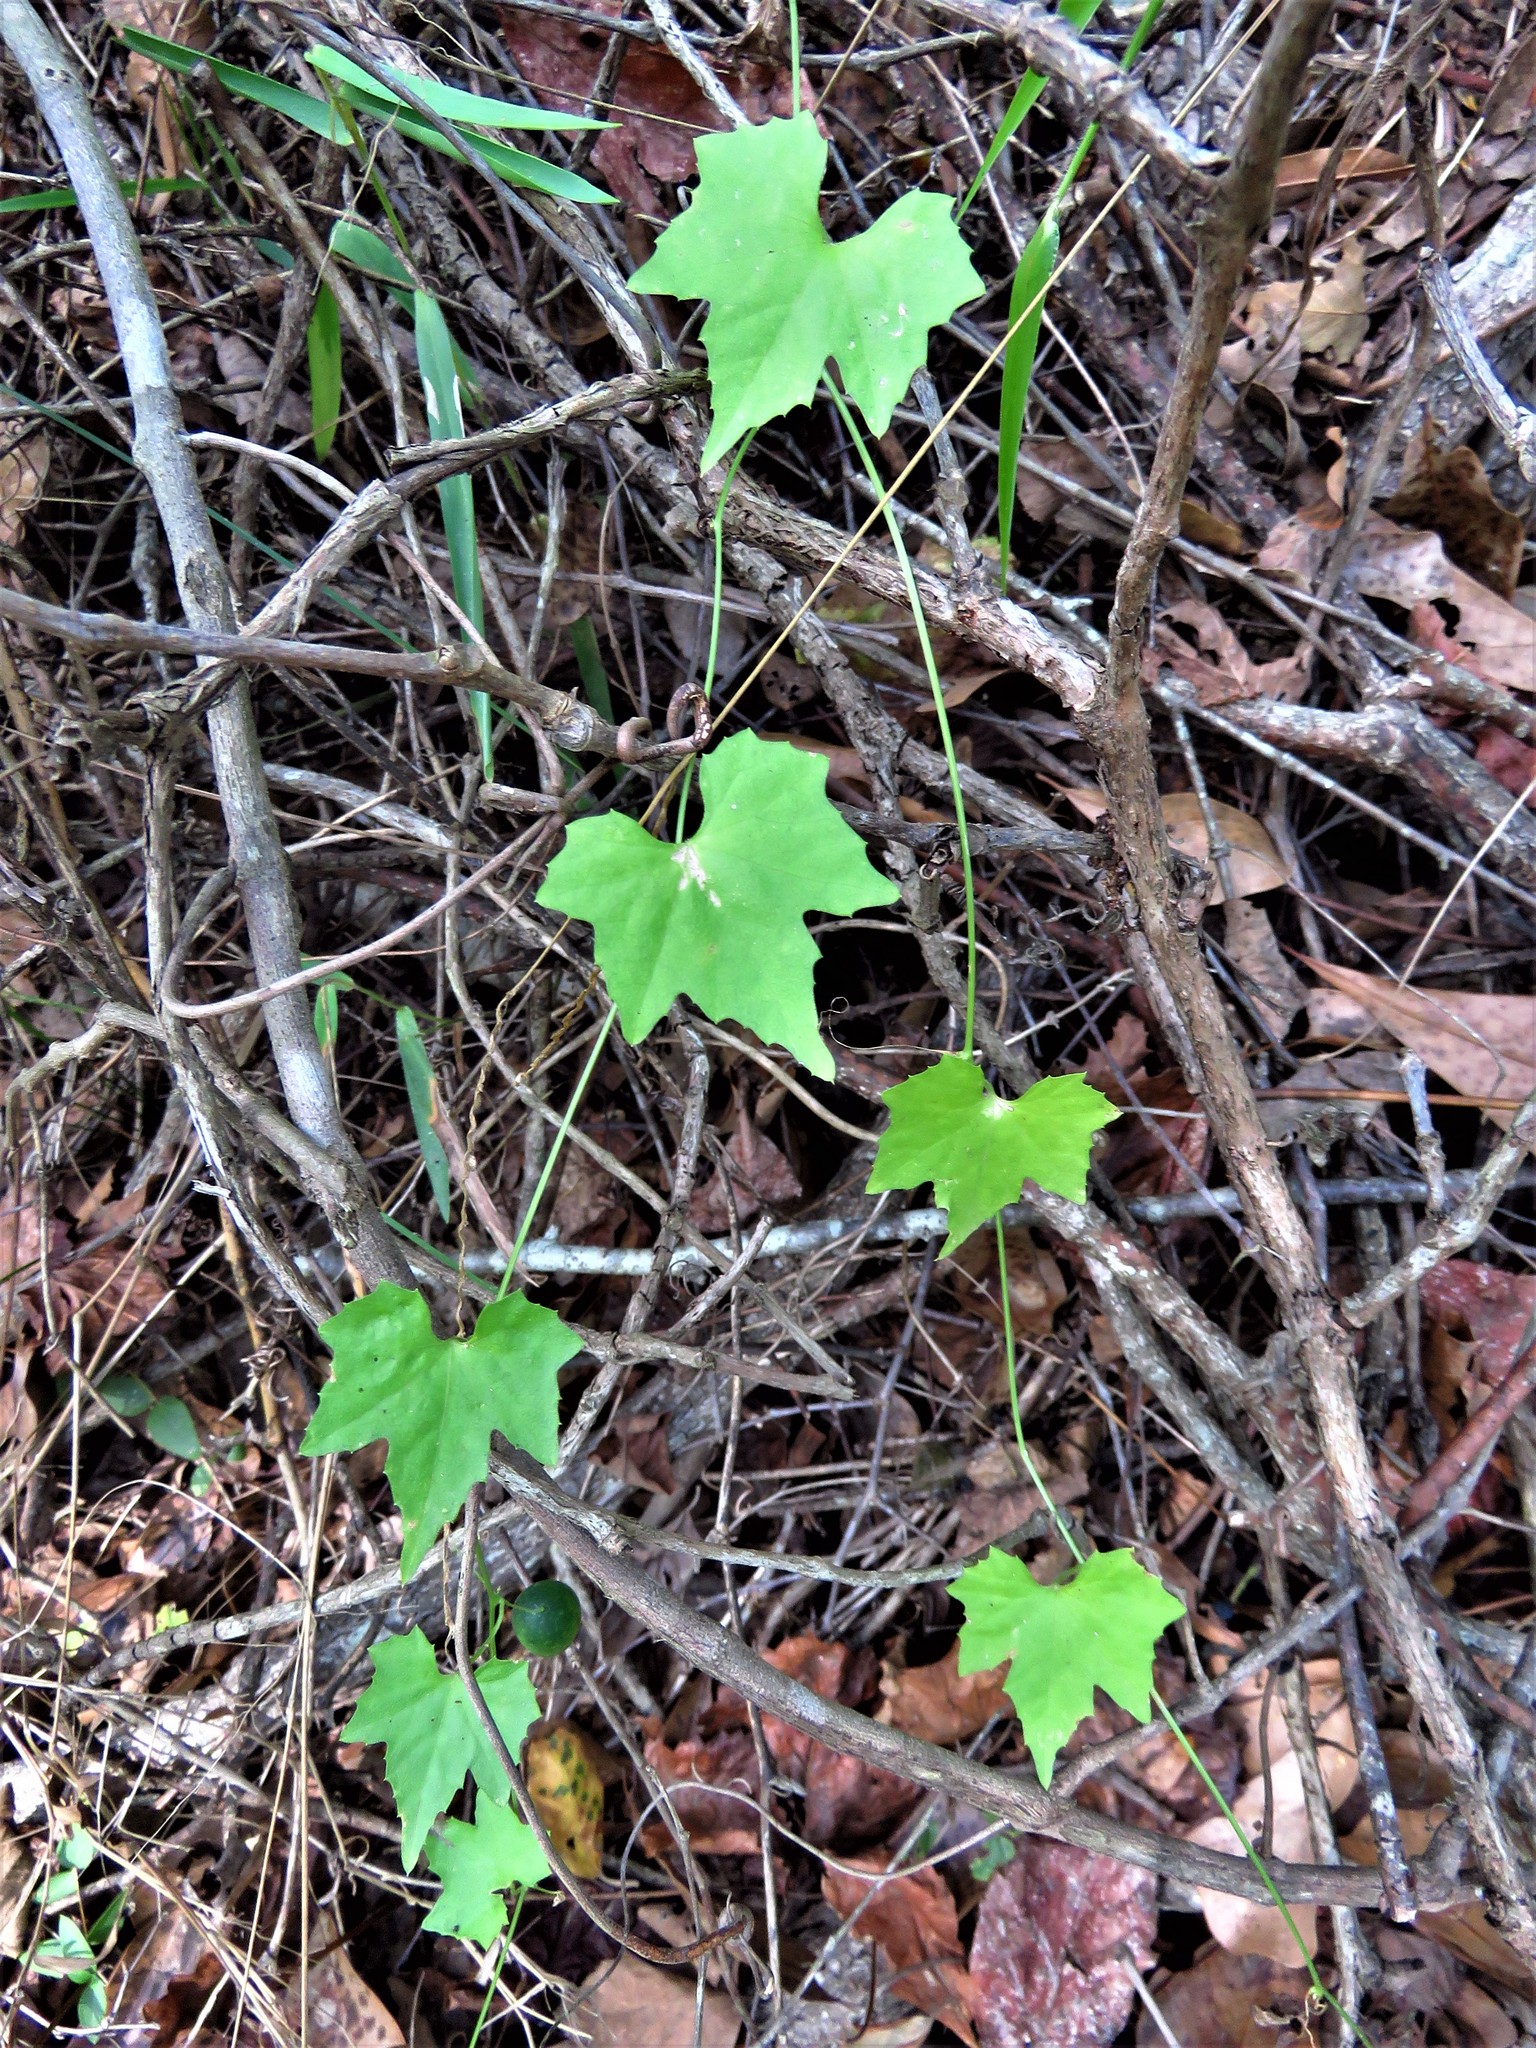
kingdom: Plantae
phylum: Tracheophyta
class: Magnoliopsida
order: Cucurbitales
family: Cucurbitaceae
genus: Melothria
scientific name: Melothria pendula
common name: Creeping-cucumber
